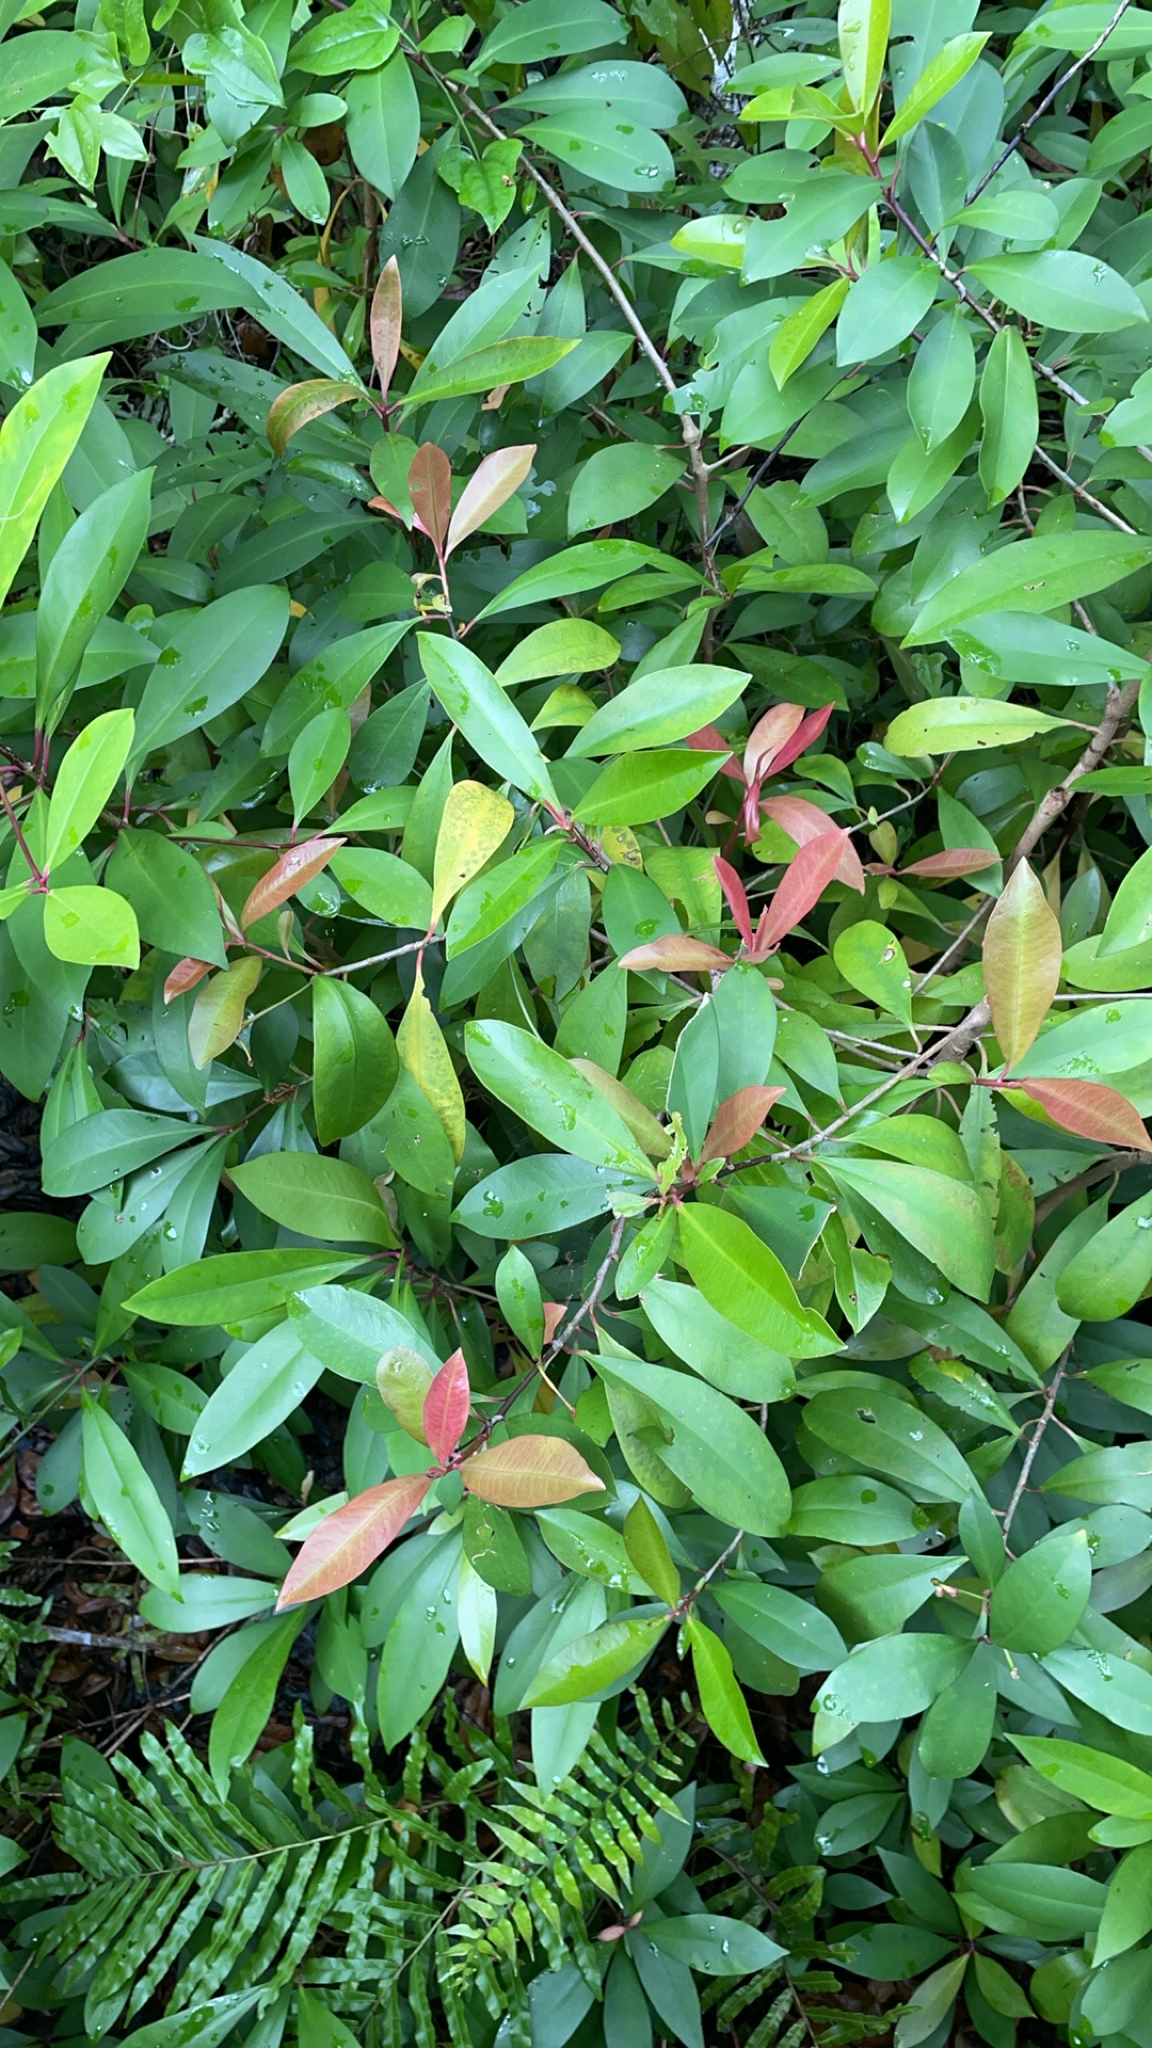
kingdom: Plantae
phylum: Tracheophyta
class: Magnoliopsida
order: Ericales
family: Primulaceae
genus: Ardisia
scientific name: Ardisia elliptica
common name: Shoebutton
